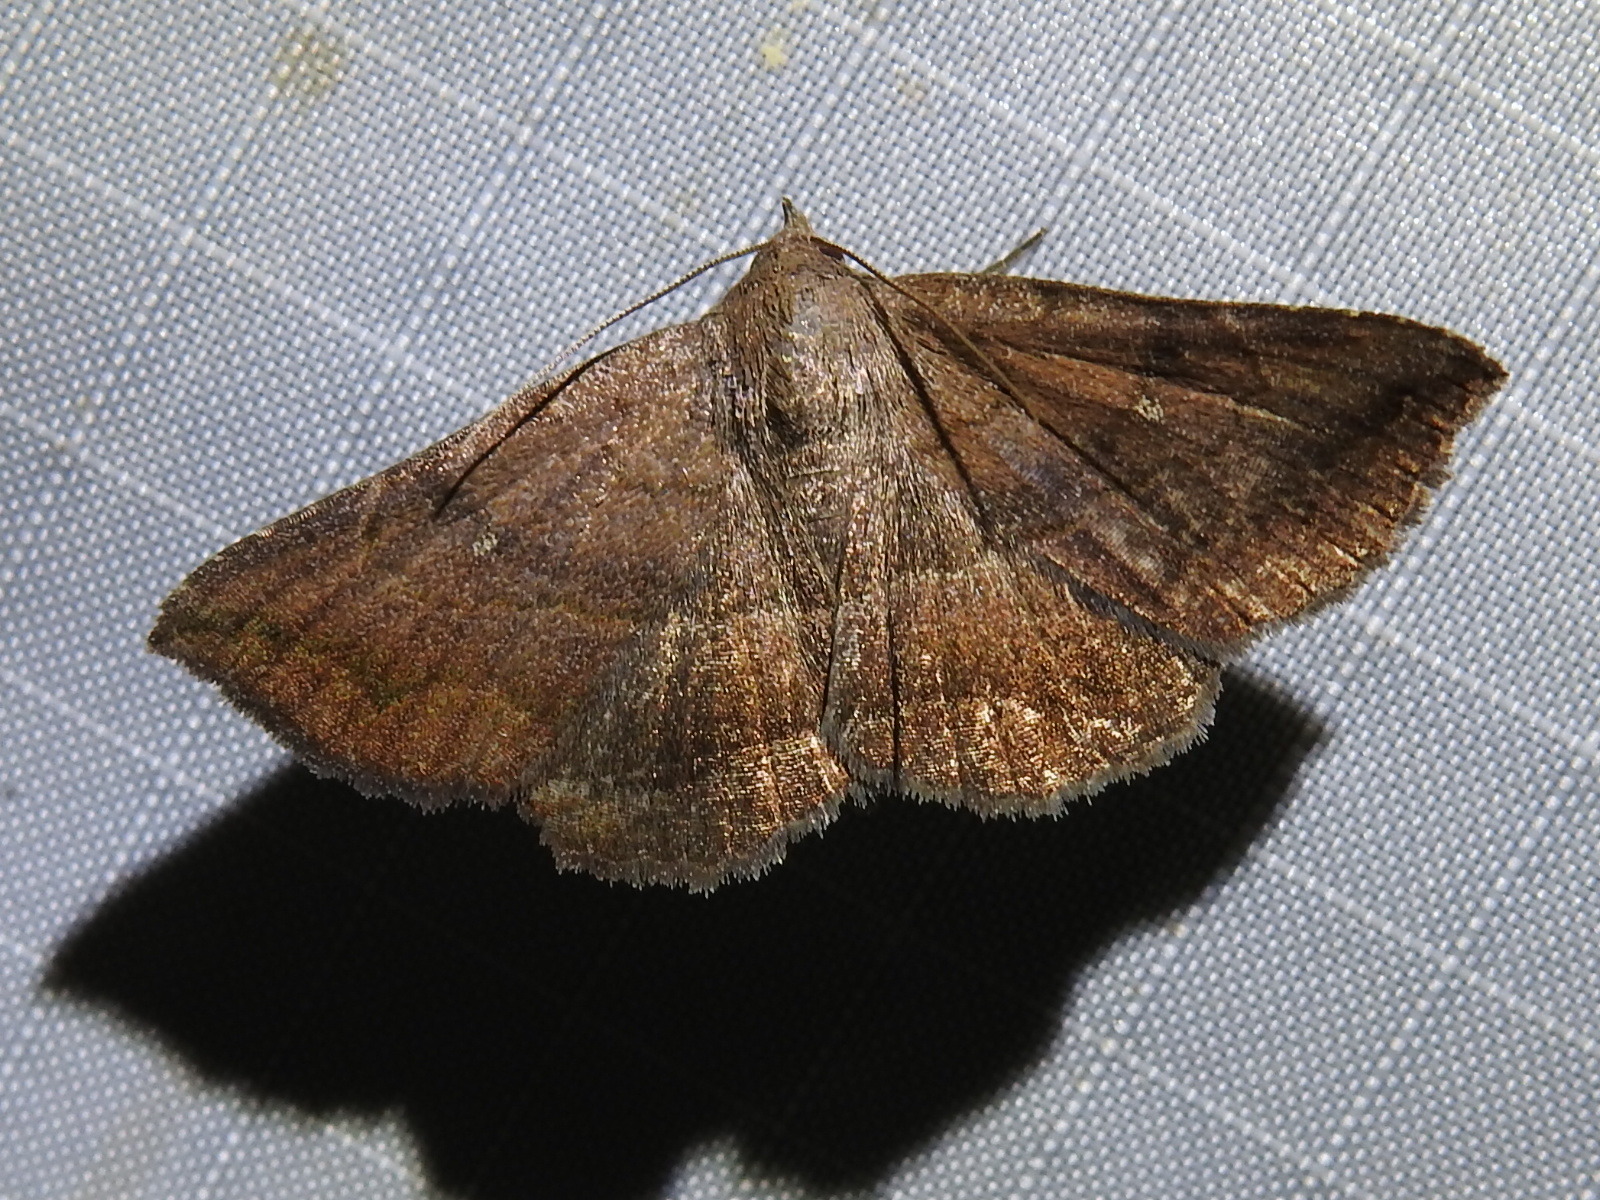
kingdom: Animalia
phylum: Arthropoda
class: Insecta
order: Lepidoptera
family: Erebidae
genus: Lesmone
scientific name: Lesmone detrahens
